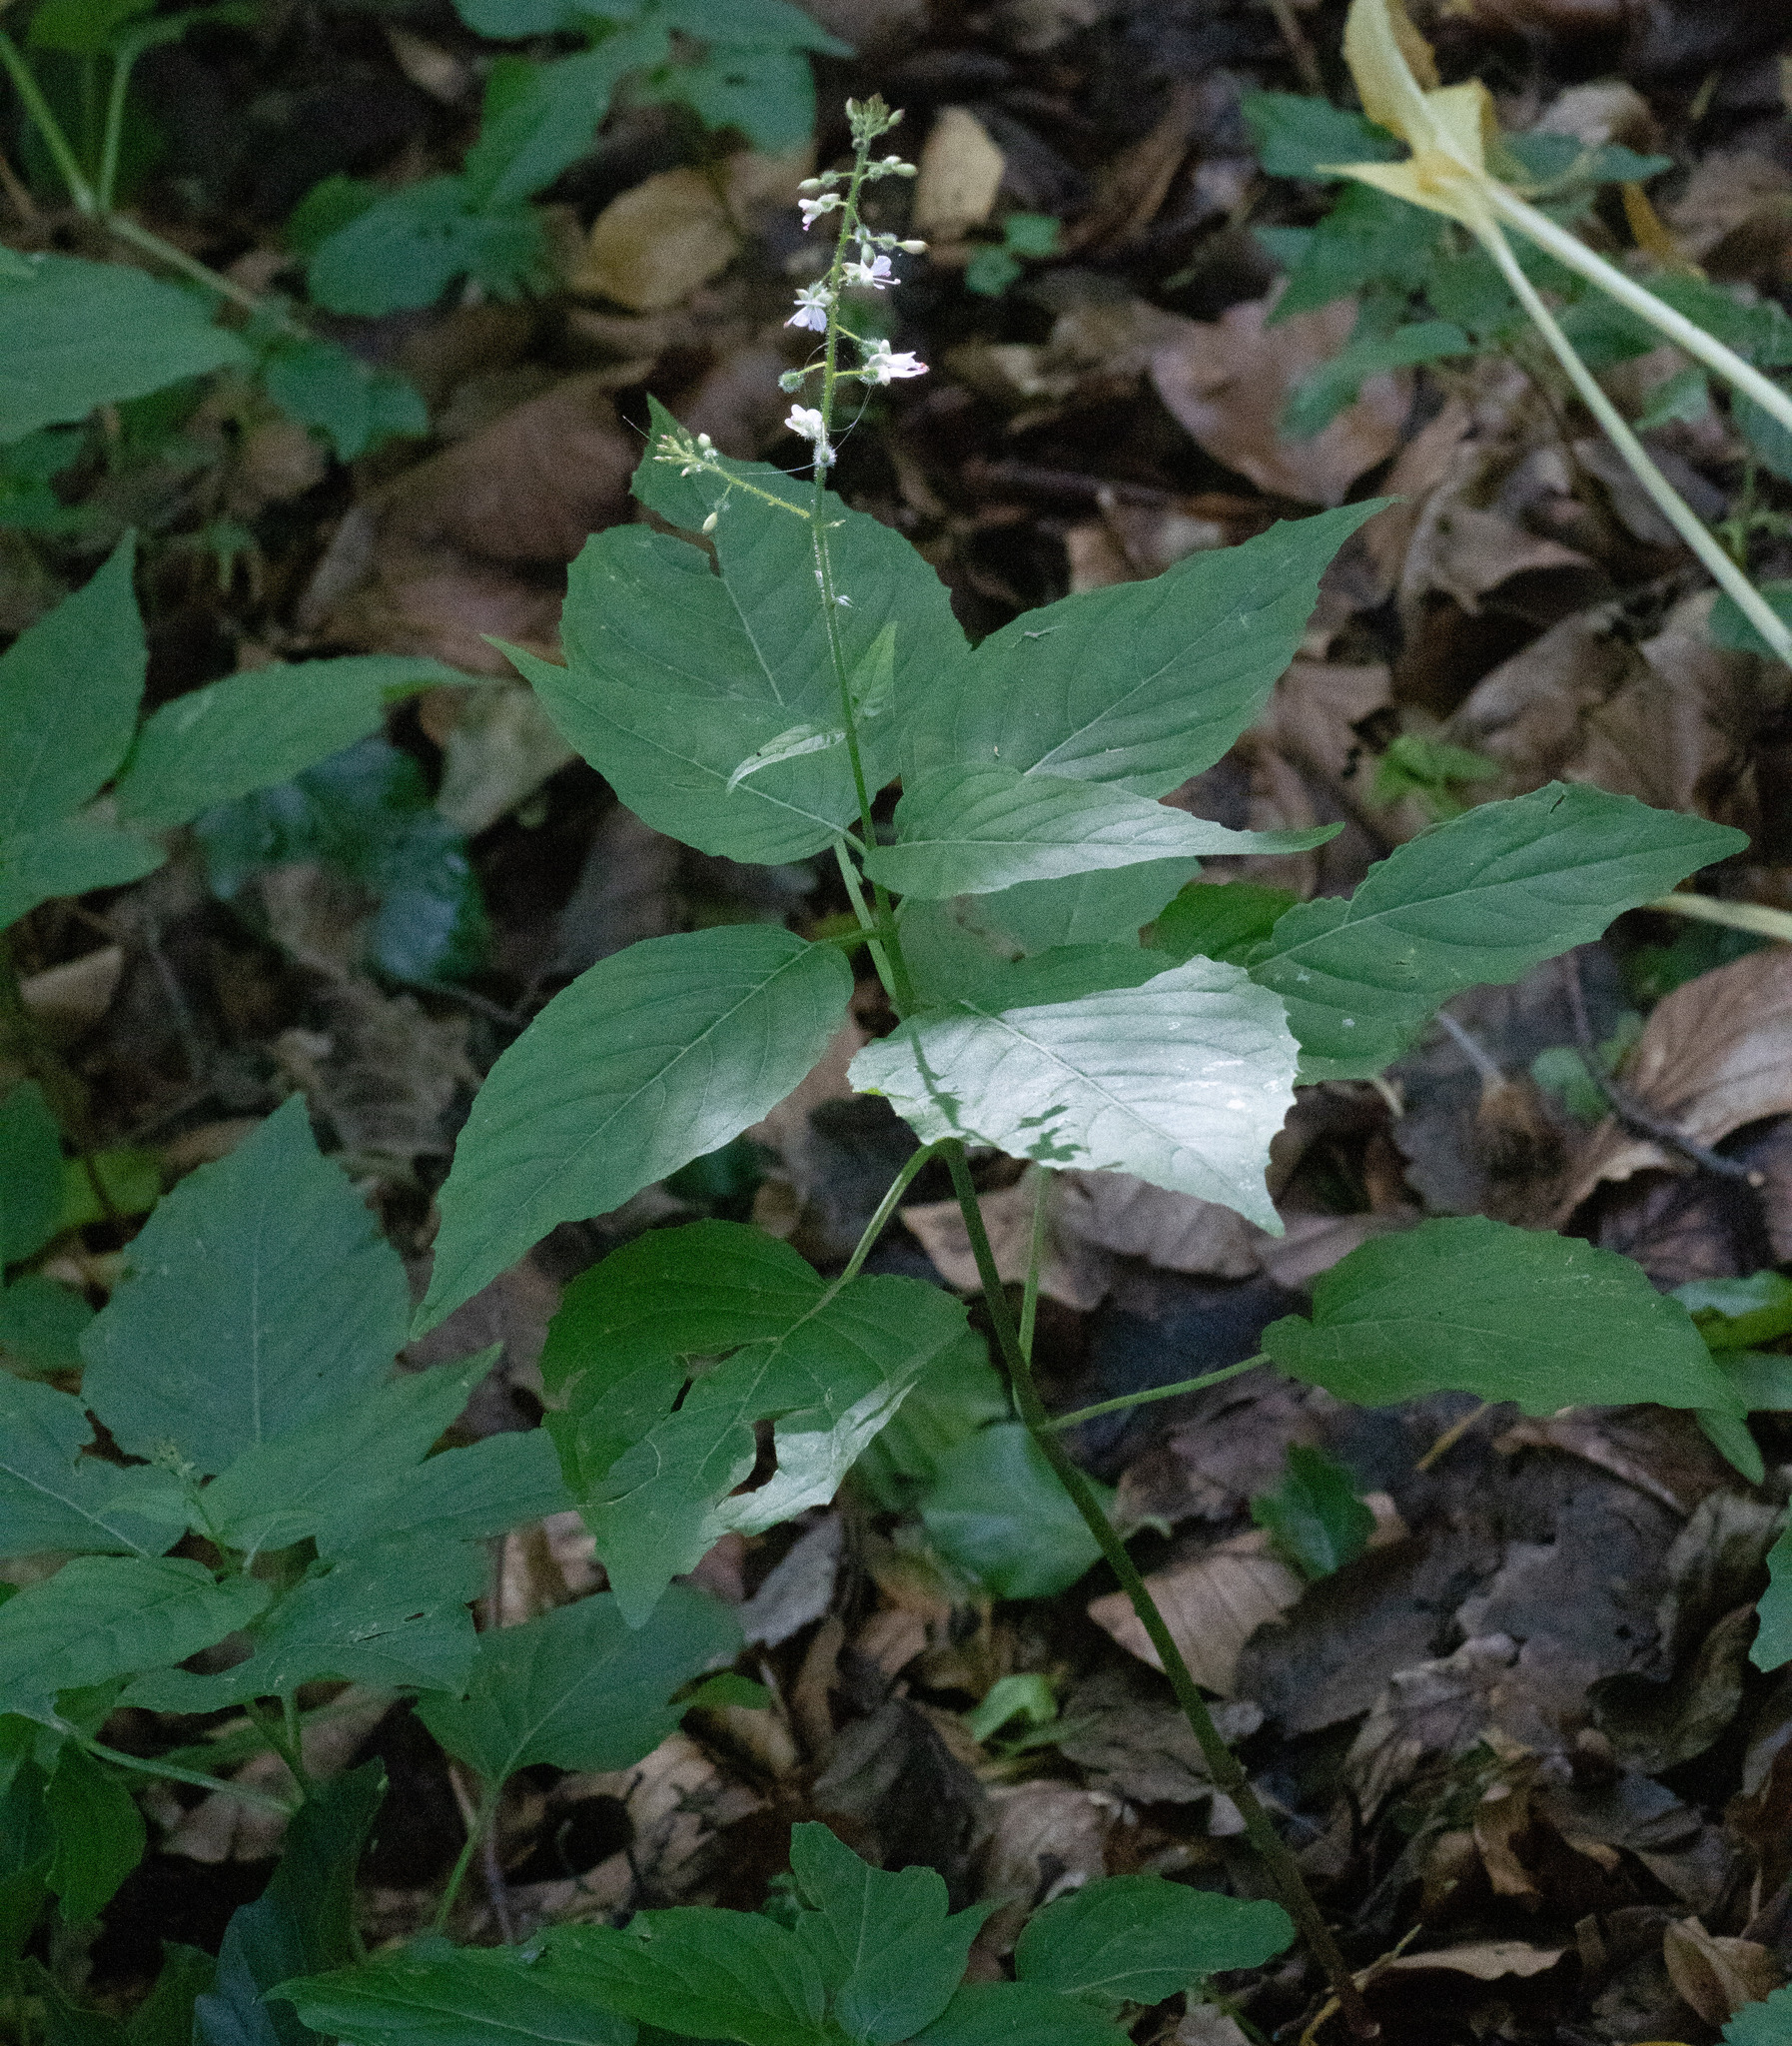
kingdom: Plantae
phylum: Tracheophyta
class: Magnoliopsida
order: Myrtales
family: Onagraceae
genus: Circaea
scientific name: Circaea lutetiana
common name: Enchanter's-nightshade
